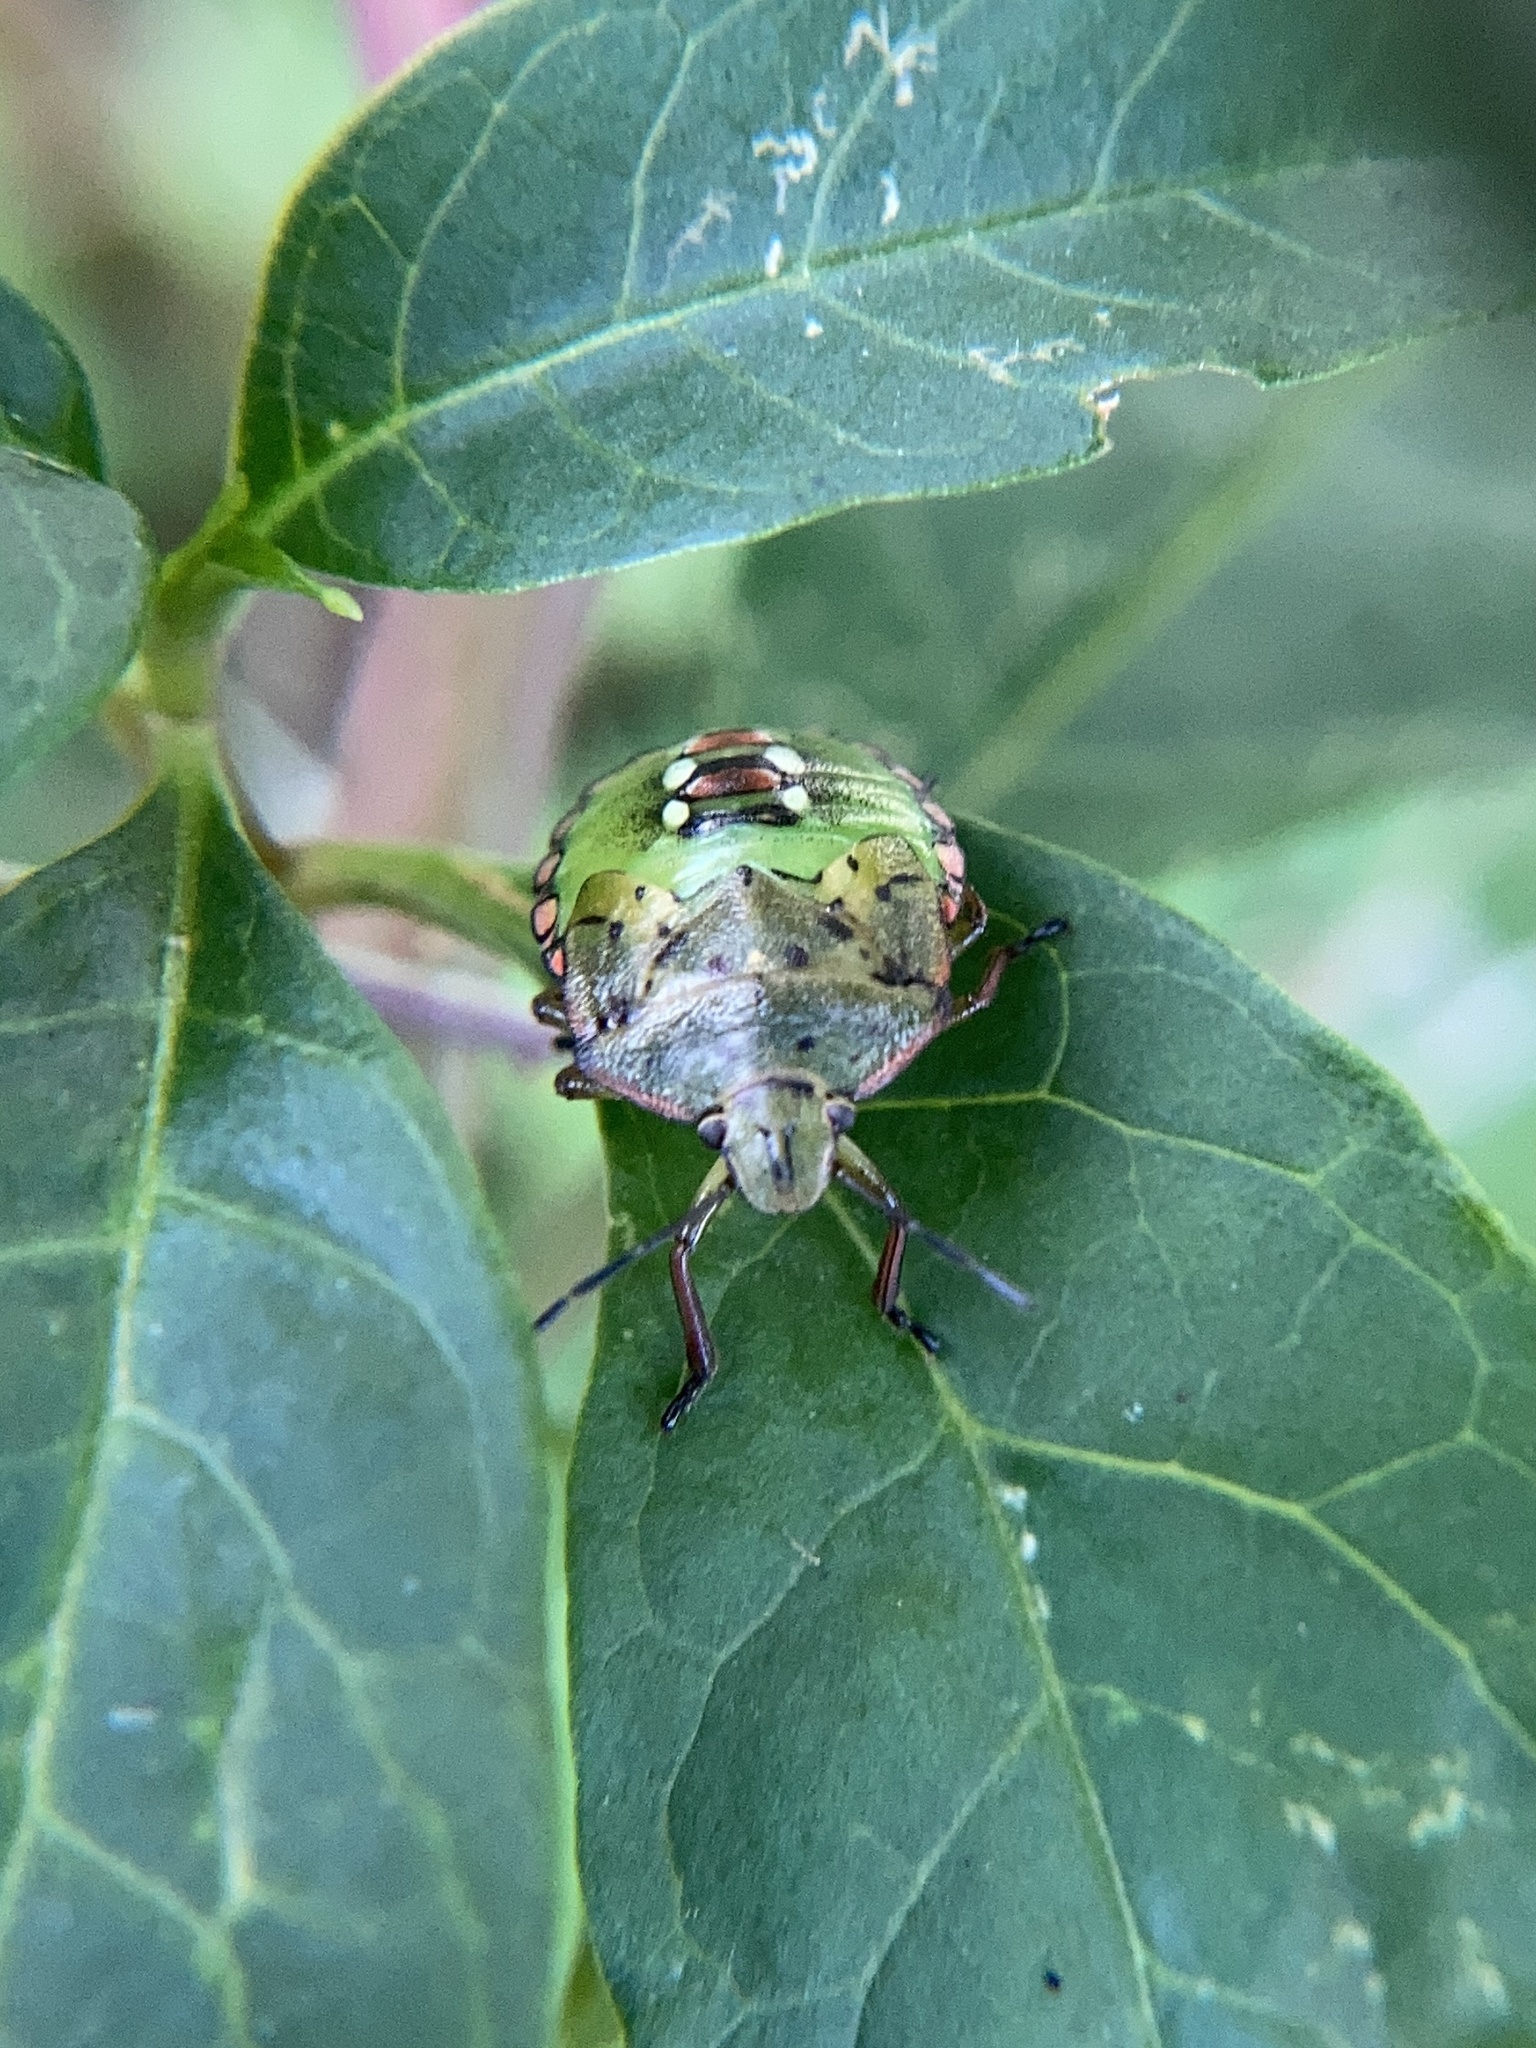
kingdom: Animalia
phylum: Arthropoda
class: Insecta
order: Hemiptera
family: Pentatomidae
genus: Nezara
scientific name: Nezara viridula
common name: Southern green stink bug
